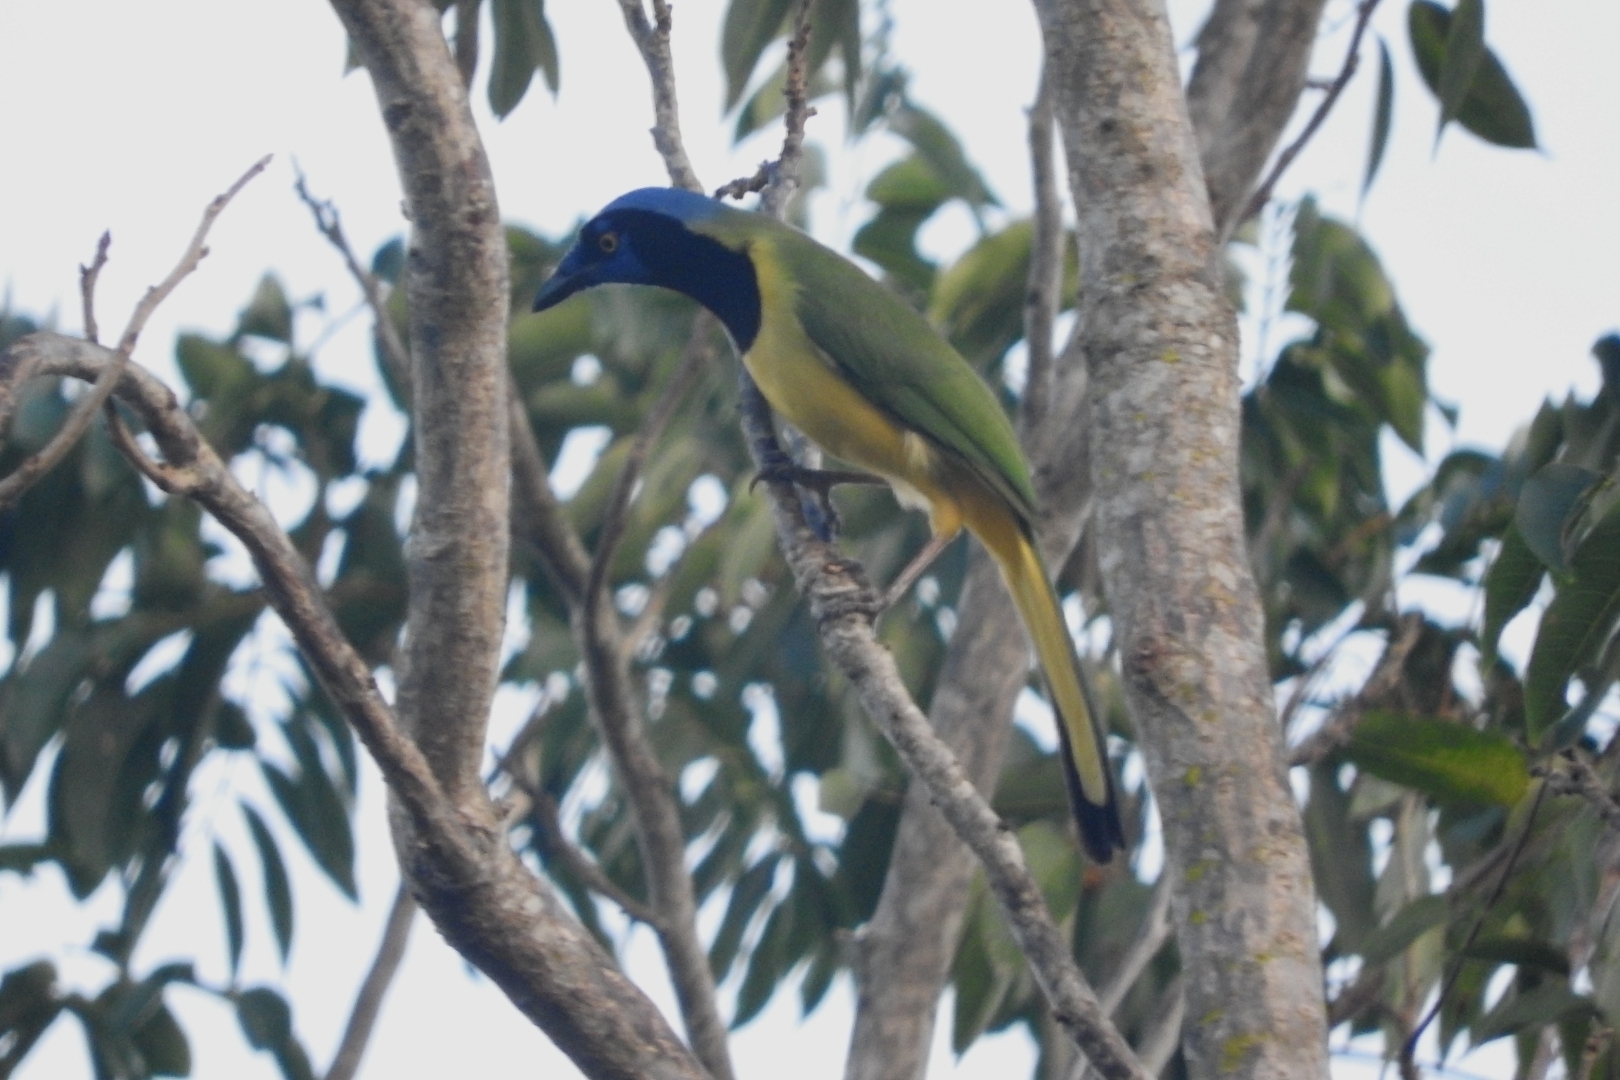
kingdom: Animalia
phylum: Chordata
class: Aves
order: Passeriformes
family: Corvidae
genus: Cyanocorax
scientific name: Cyanocorax yncas
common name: Green jay
